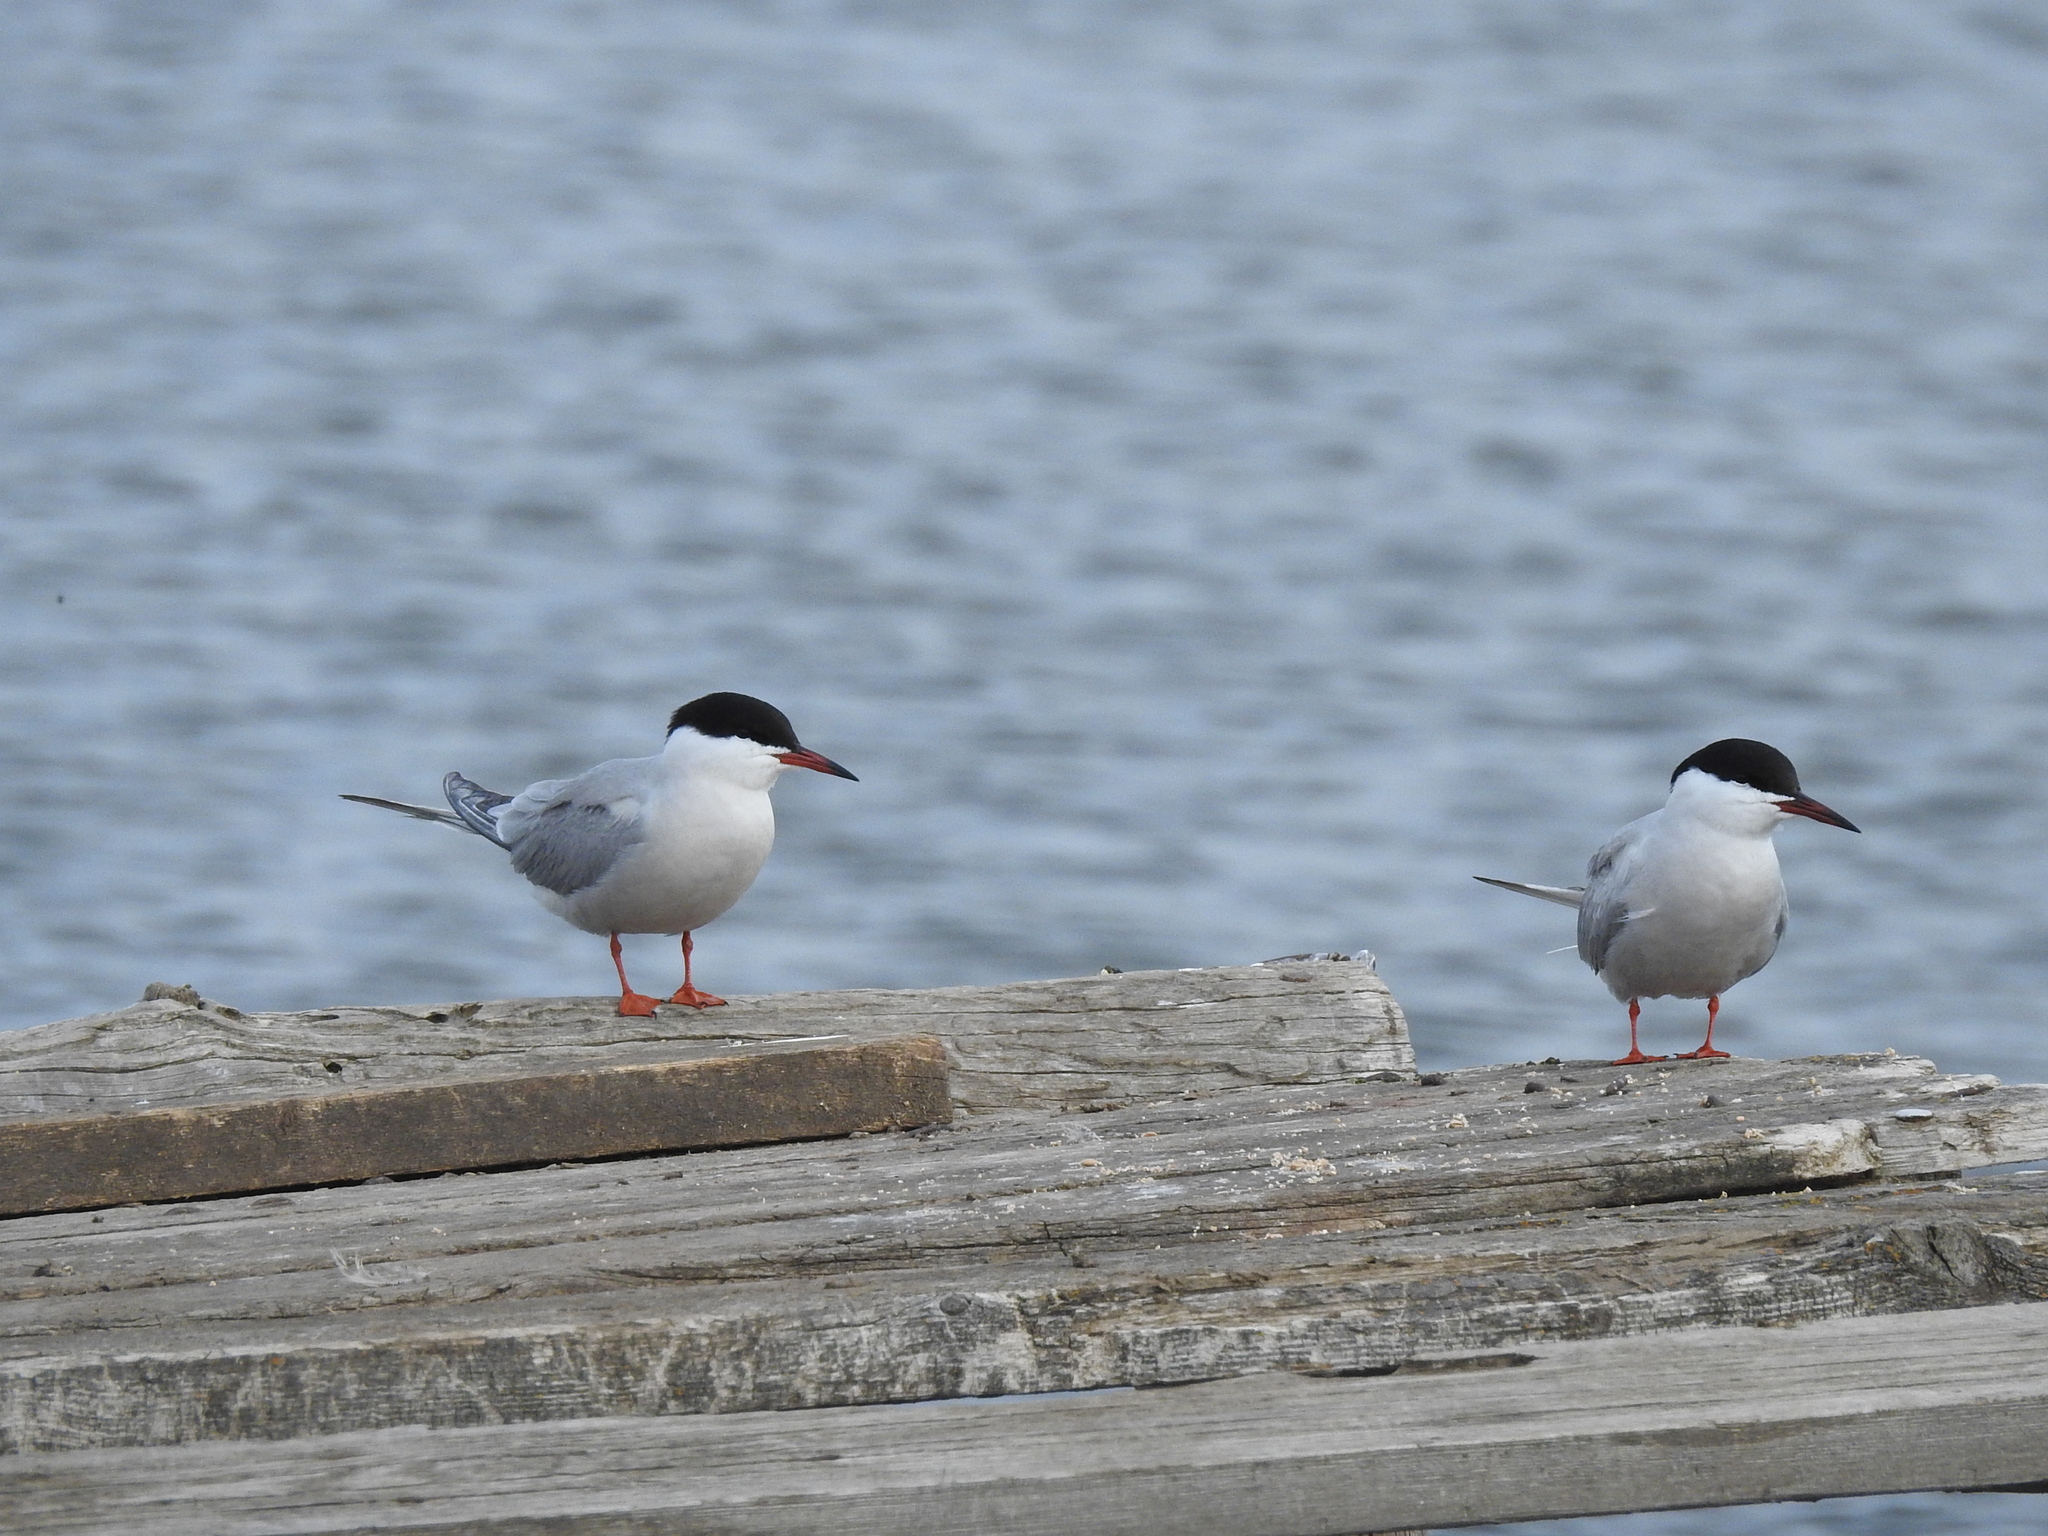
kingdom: Animalia
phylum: Chordata
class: Aves
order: Charadriiformes
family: Laridae
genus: Sterna
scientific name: Sterna hirundo
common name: Common tern
